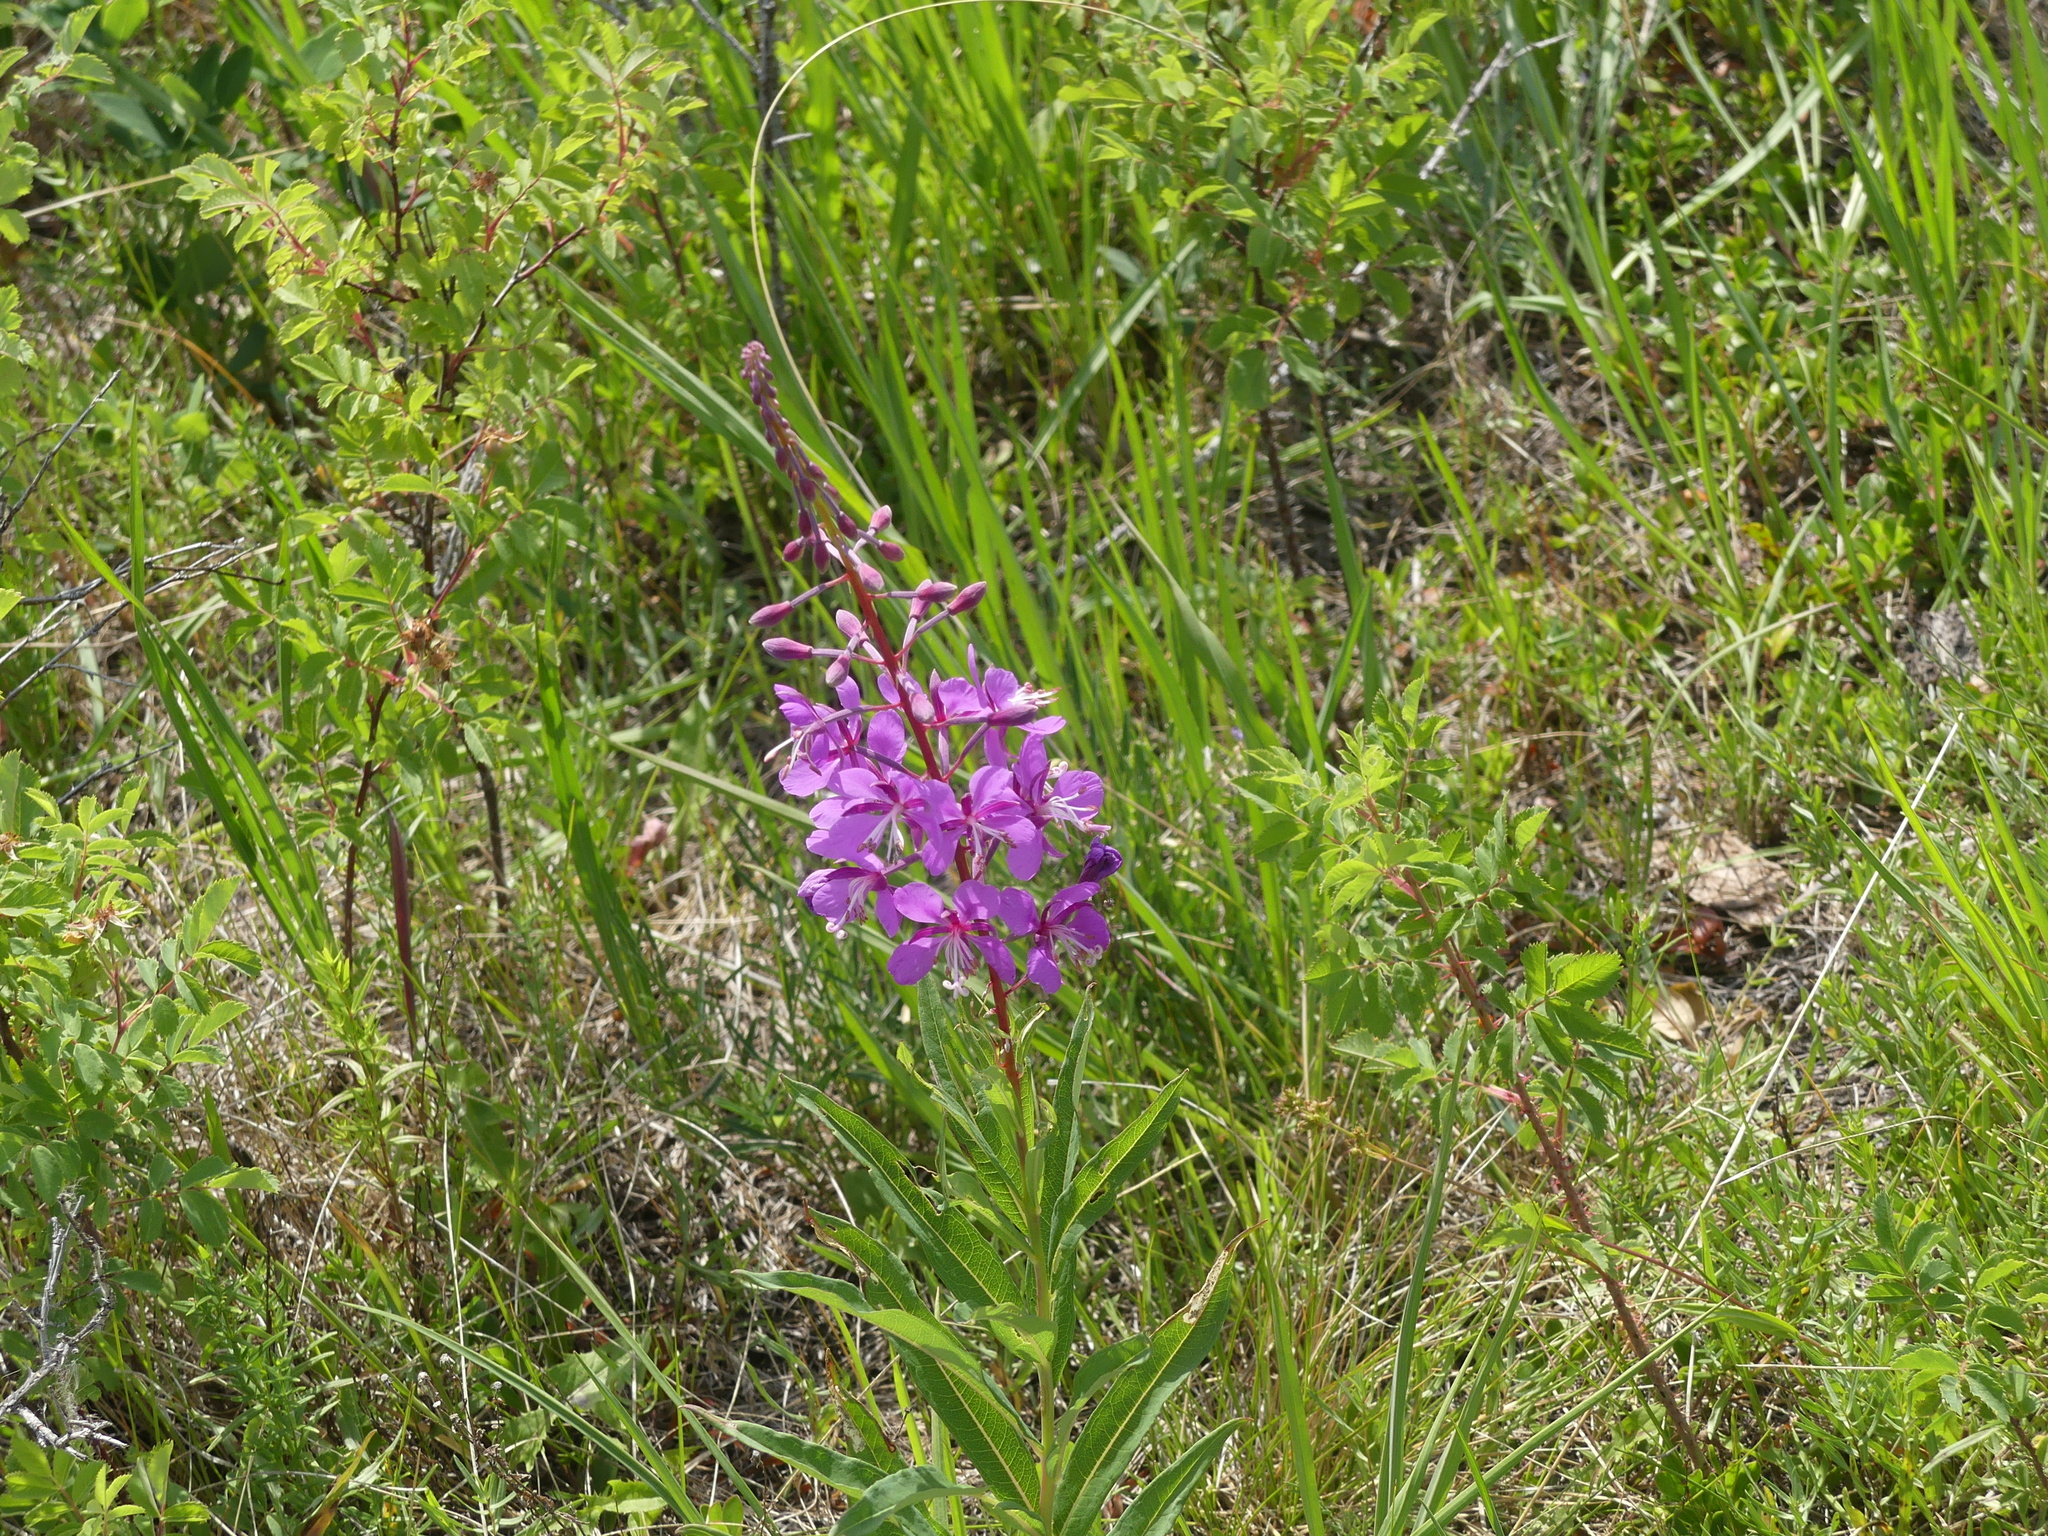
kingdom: Plantae
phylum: Tracheophyta
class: Magnoliopsida
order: Myrtales
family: Onagraceae
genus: Chamaenerion
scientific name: Chamaenerion angustifolium
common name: Fireweed
